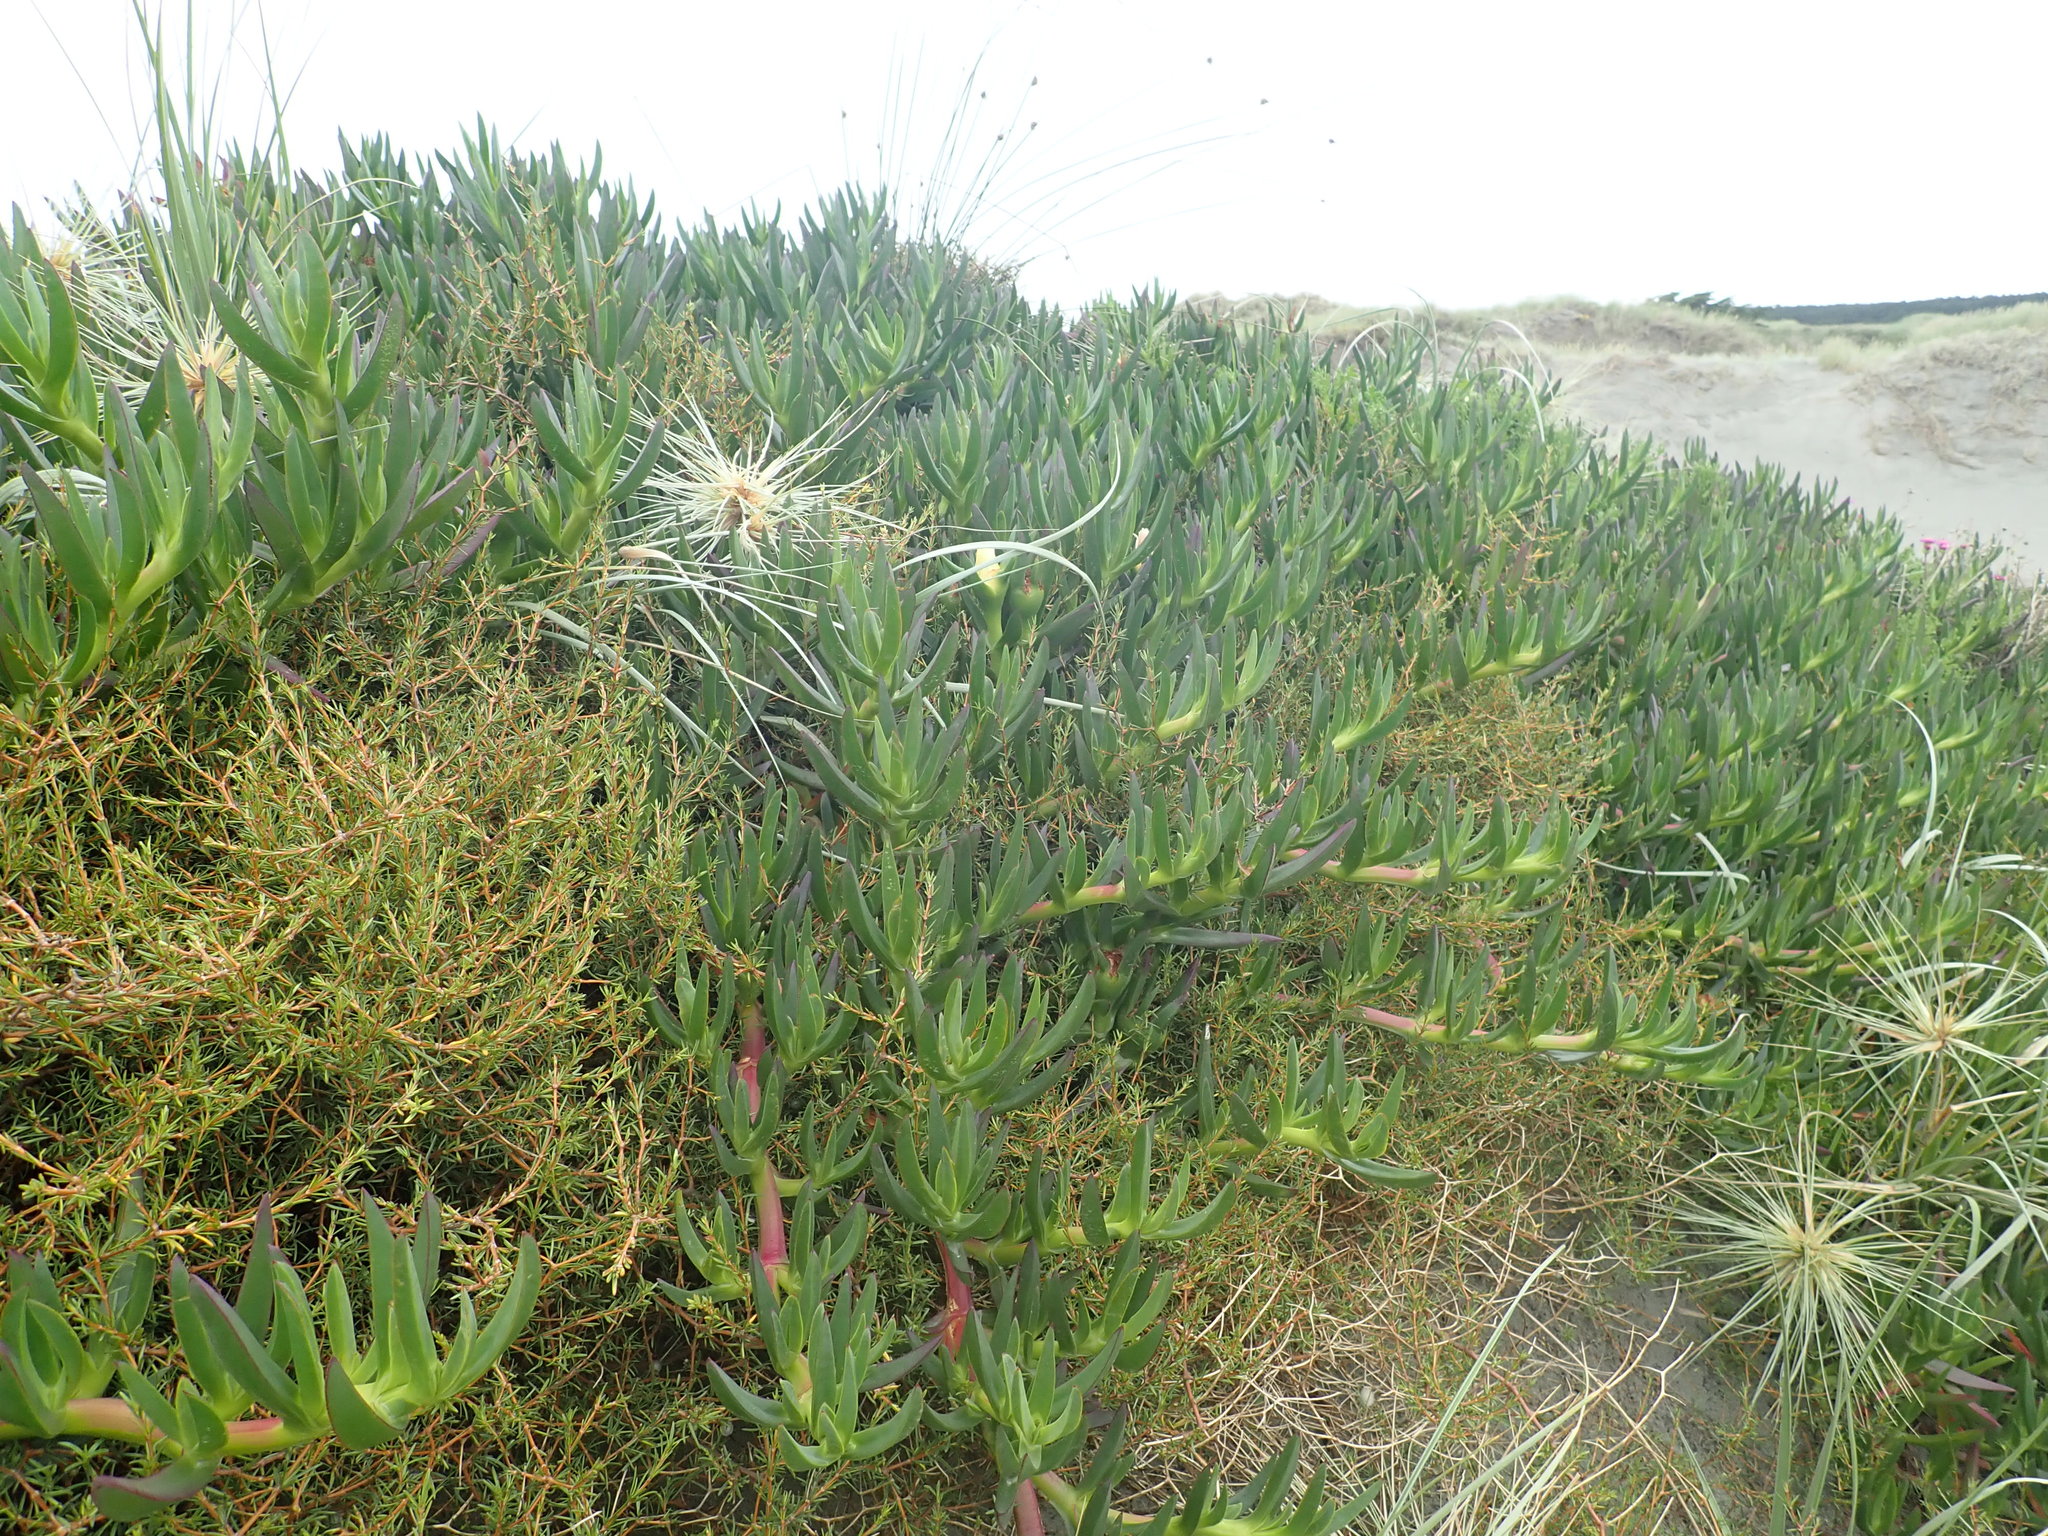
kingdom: Plantae
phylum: Tracheophyta
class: Magnoliopsida
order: Caryophyllales
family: Aizoaceae
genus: Carpobrotus
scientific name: Carpobrotus edulis
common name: Hottentot-fig
